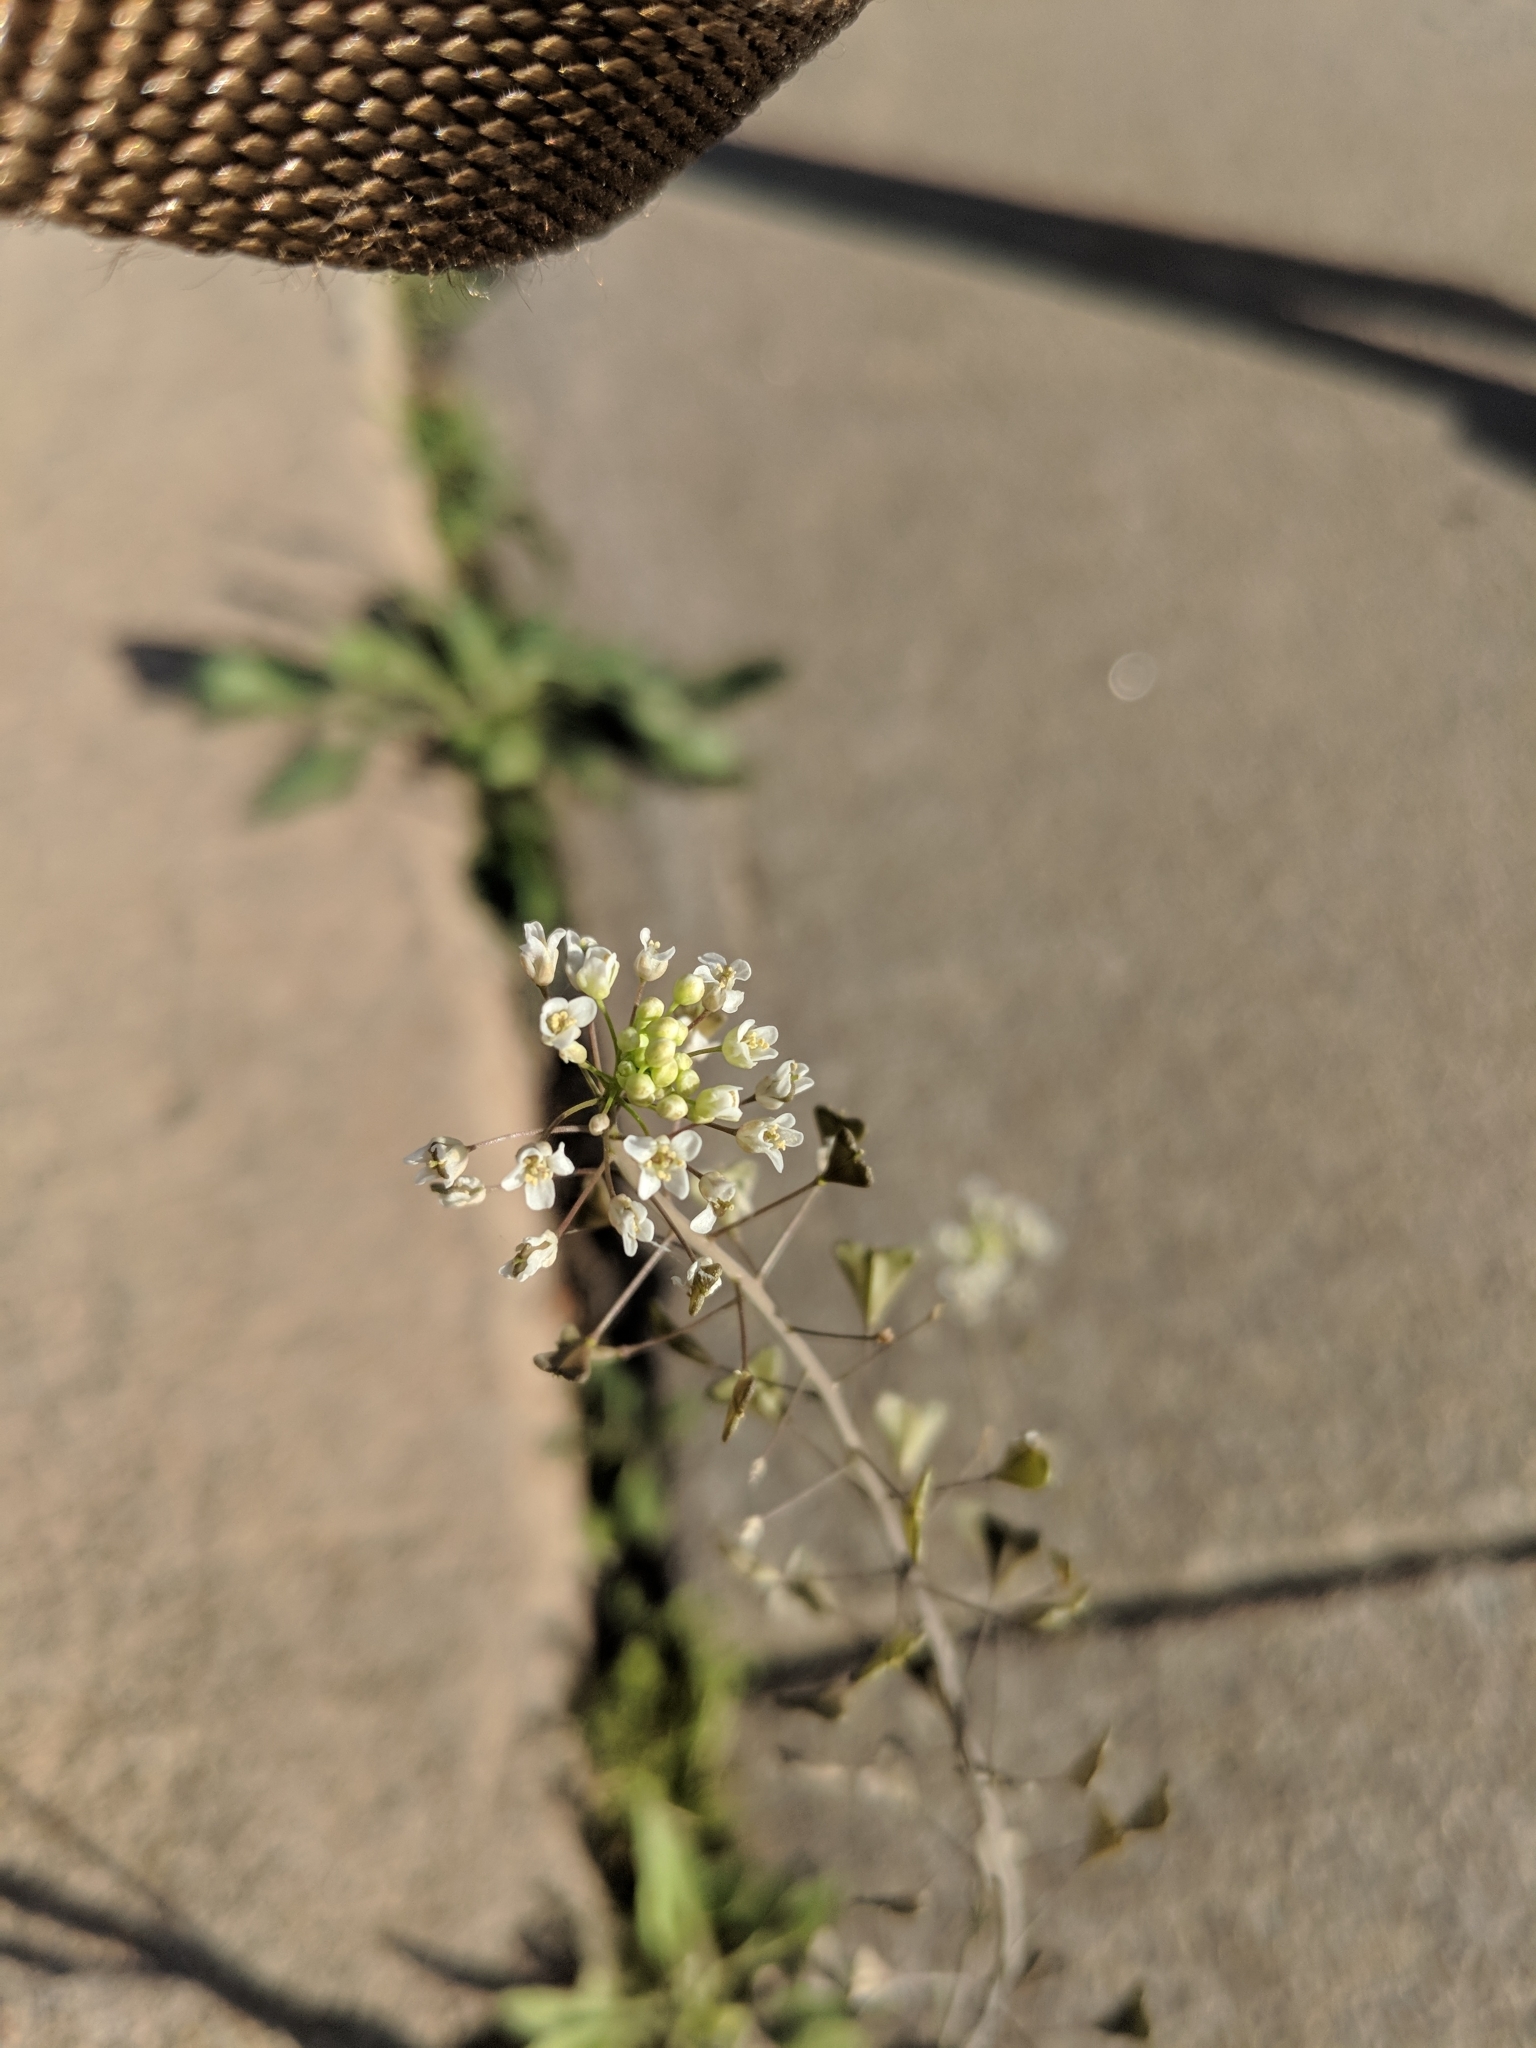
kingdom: Plantae
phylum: Tracheophyta
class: Magnoliopsida
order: Brassicales
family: Brassicaceae
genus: Capsella
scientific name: Capsella bursa-pastoris
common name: Shepherd's purse
